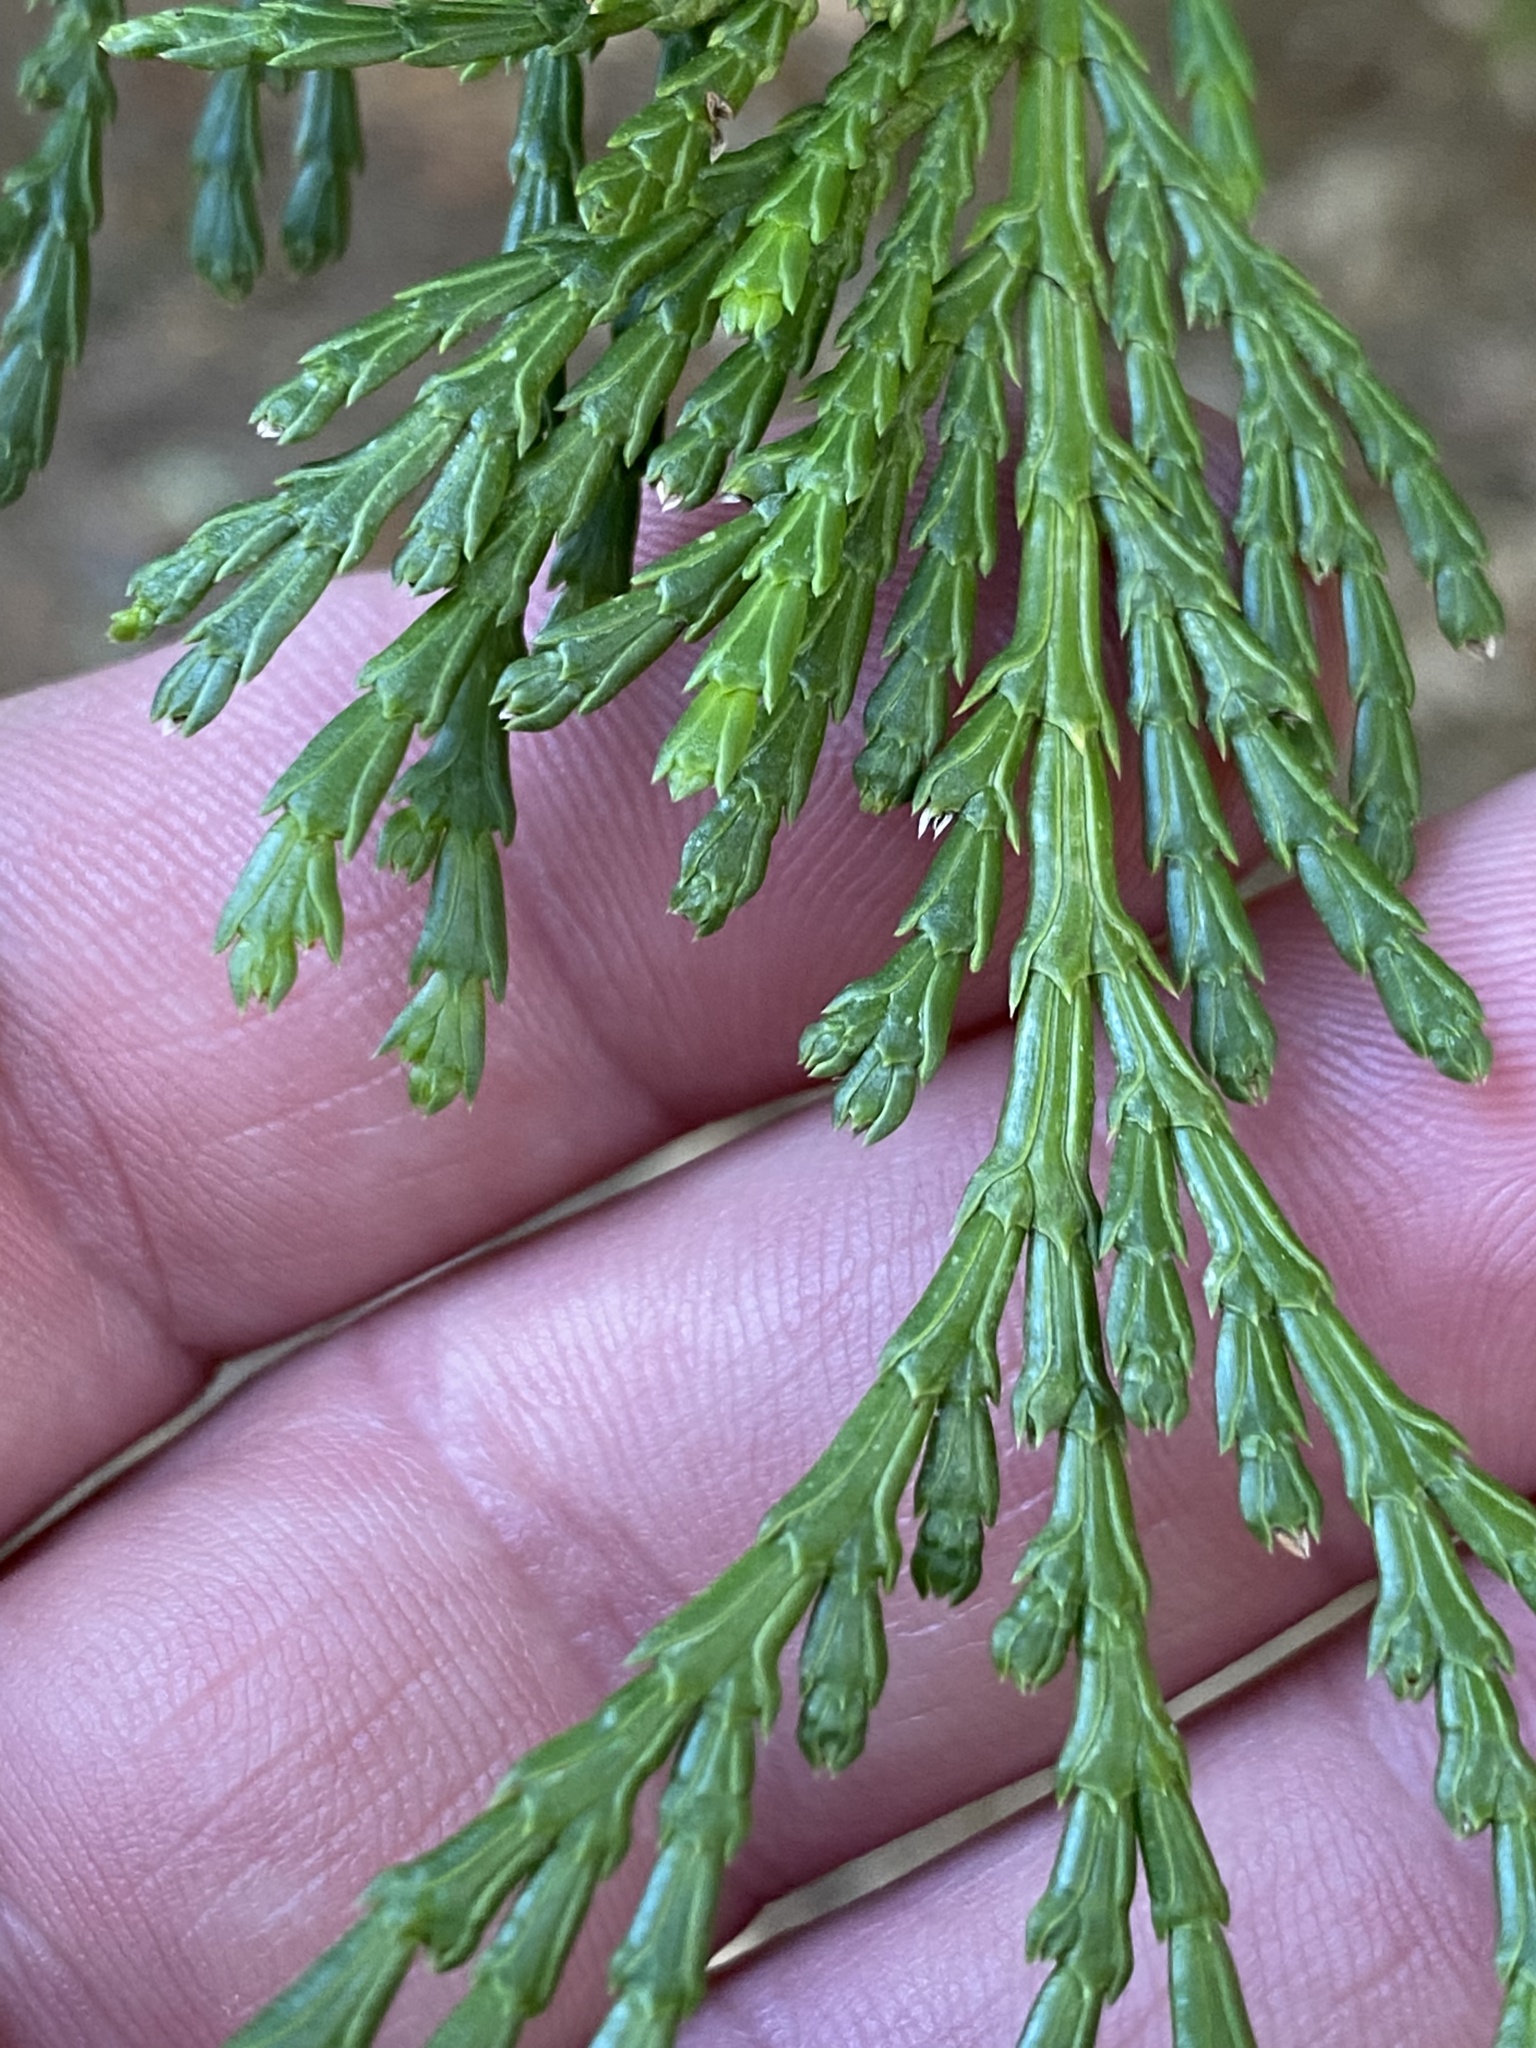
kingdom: Plantae
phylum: Tracheophyta
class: Pinopsida
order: Pinales
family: Cupressaceae
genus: Calocedrus
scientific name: Calocedrus decurrens
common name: Californian incense-cedar
